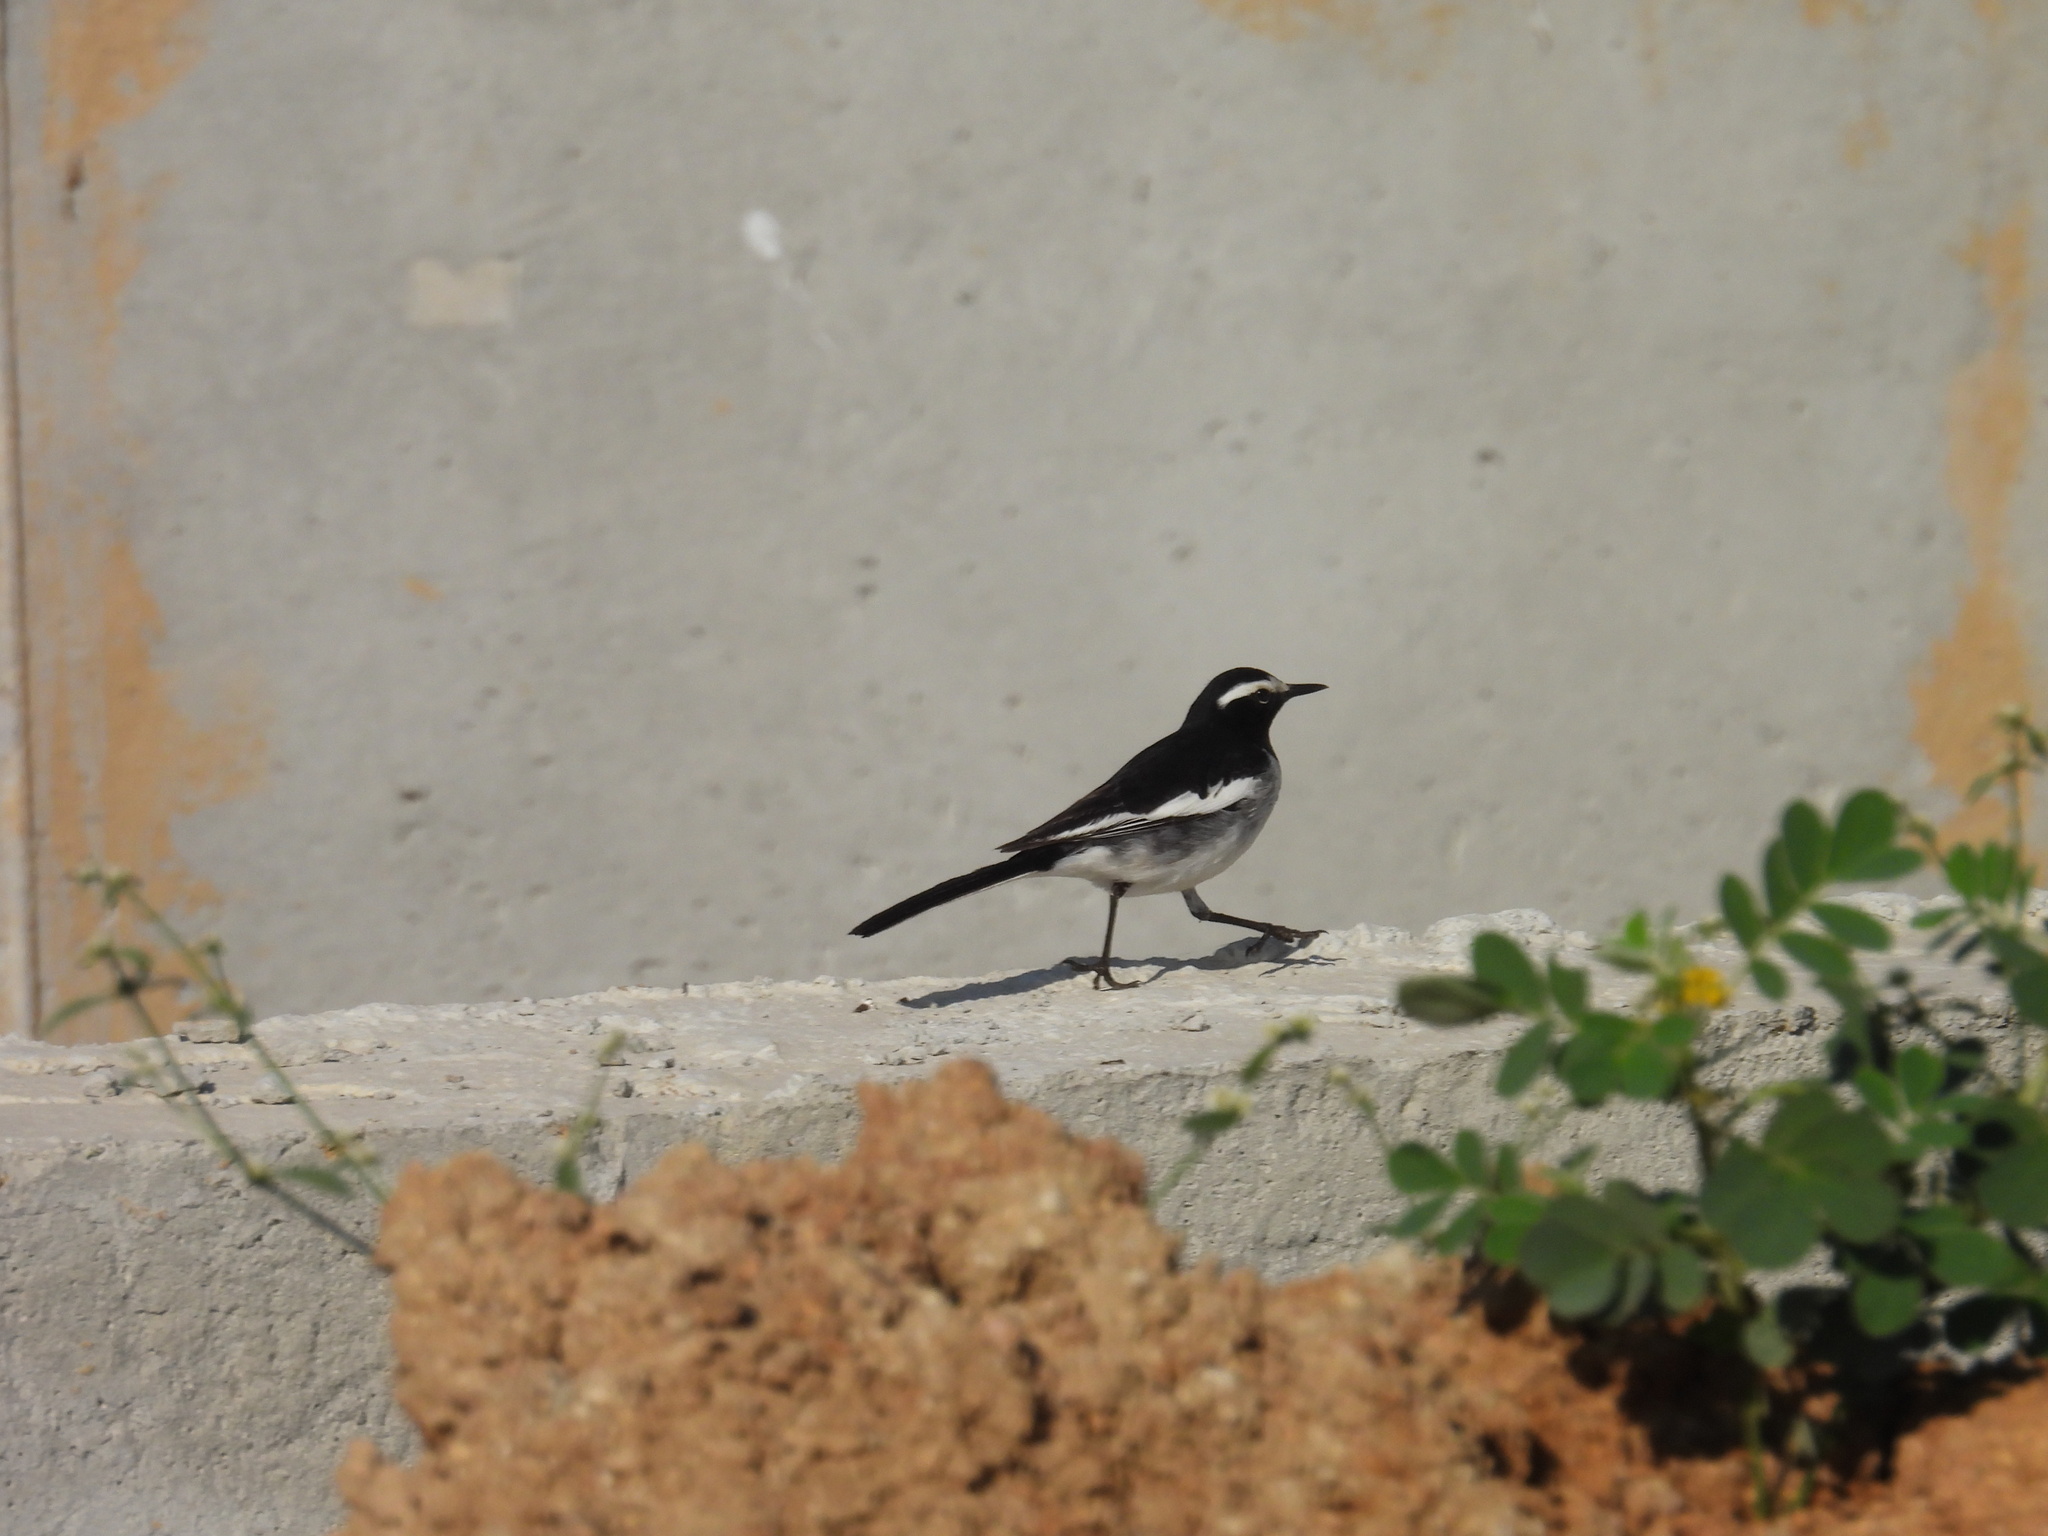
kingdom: Animalia
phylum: Chordata
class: Aves
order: Passeriformes
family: Motacillidae
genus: Motacilla
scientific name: Motacilla maderaspatensis
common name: White-browed wagtail
